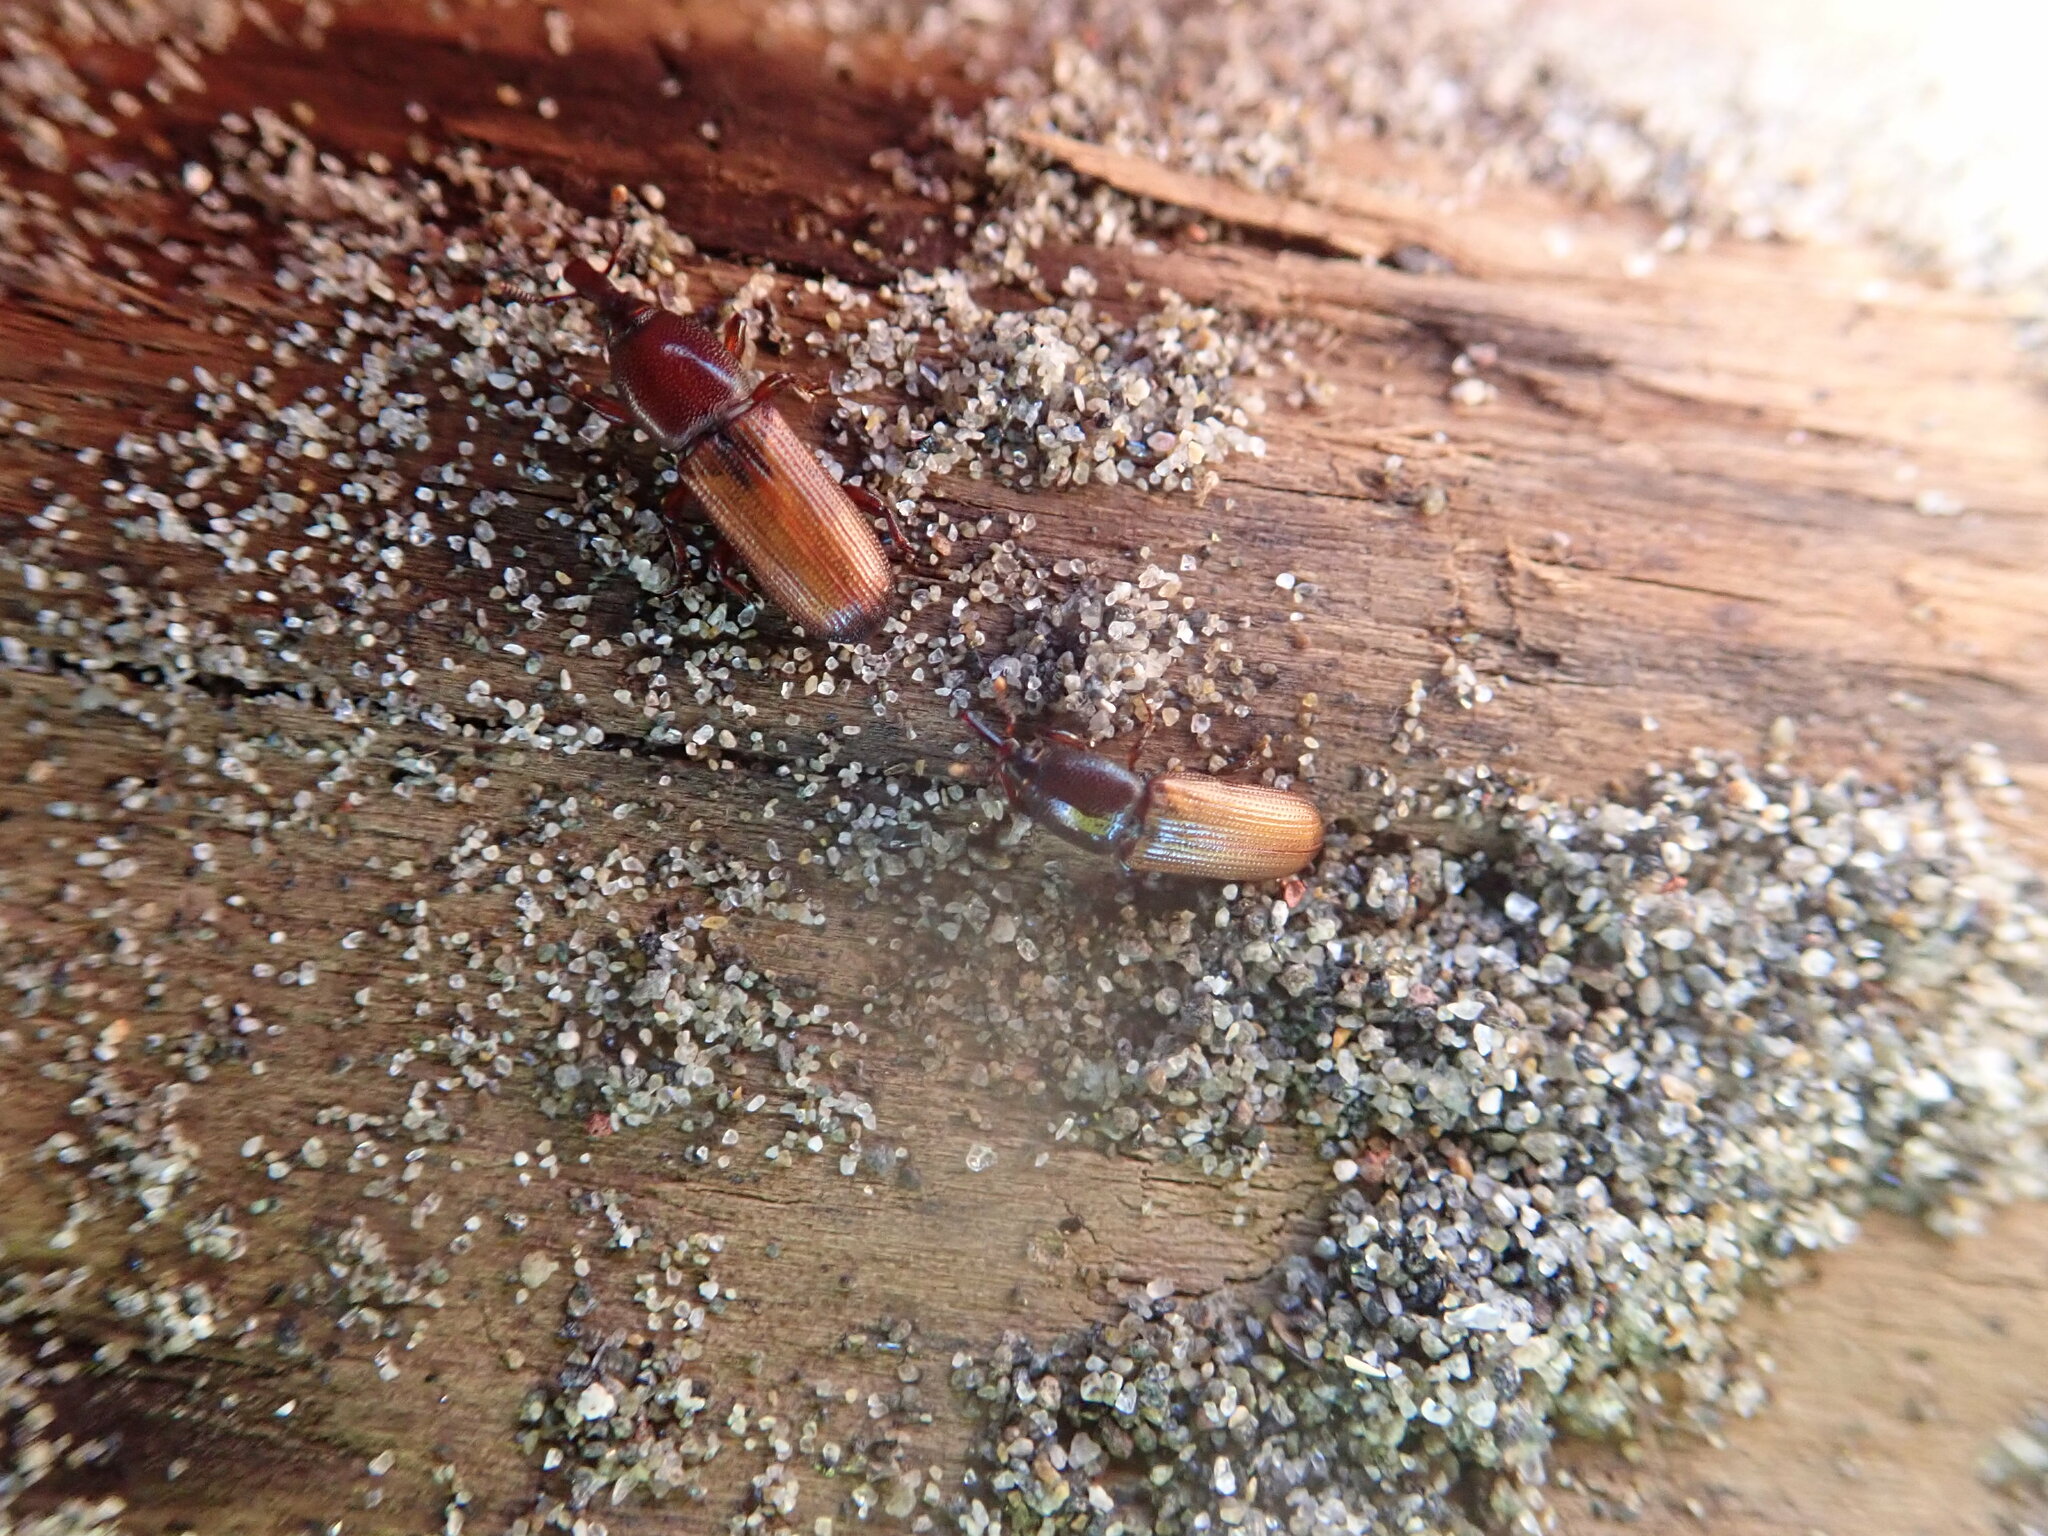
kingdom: Animalia
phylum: Arthropoda
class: Insecta
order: Coleoptera
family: Curculionidae
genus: Mesites
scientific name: Mesites pallidipennis
